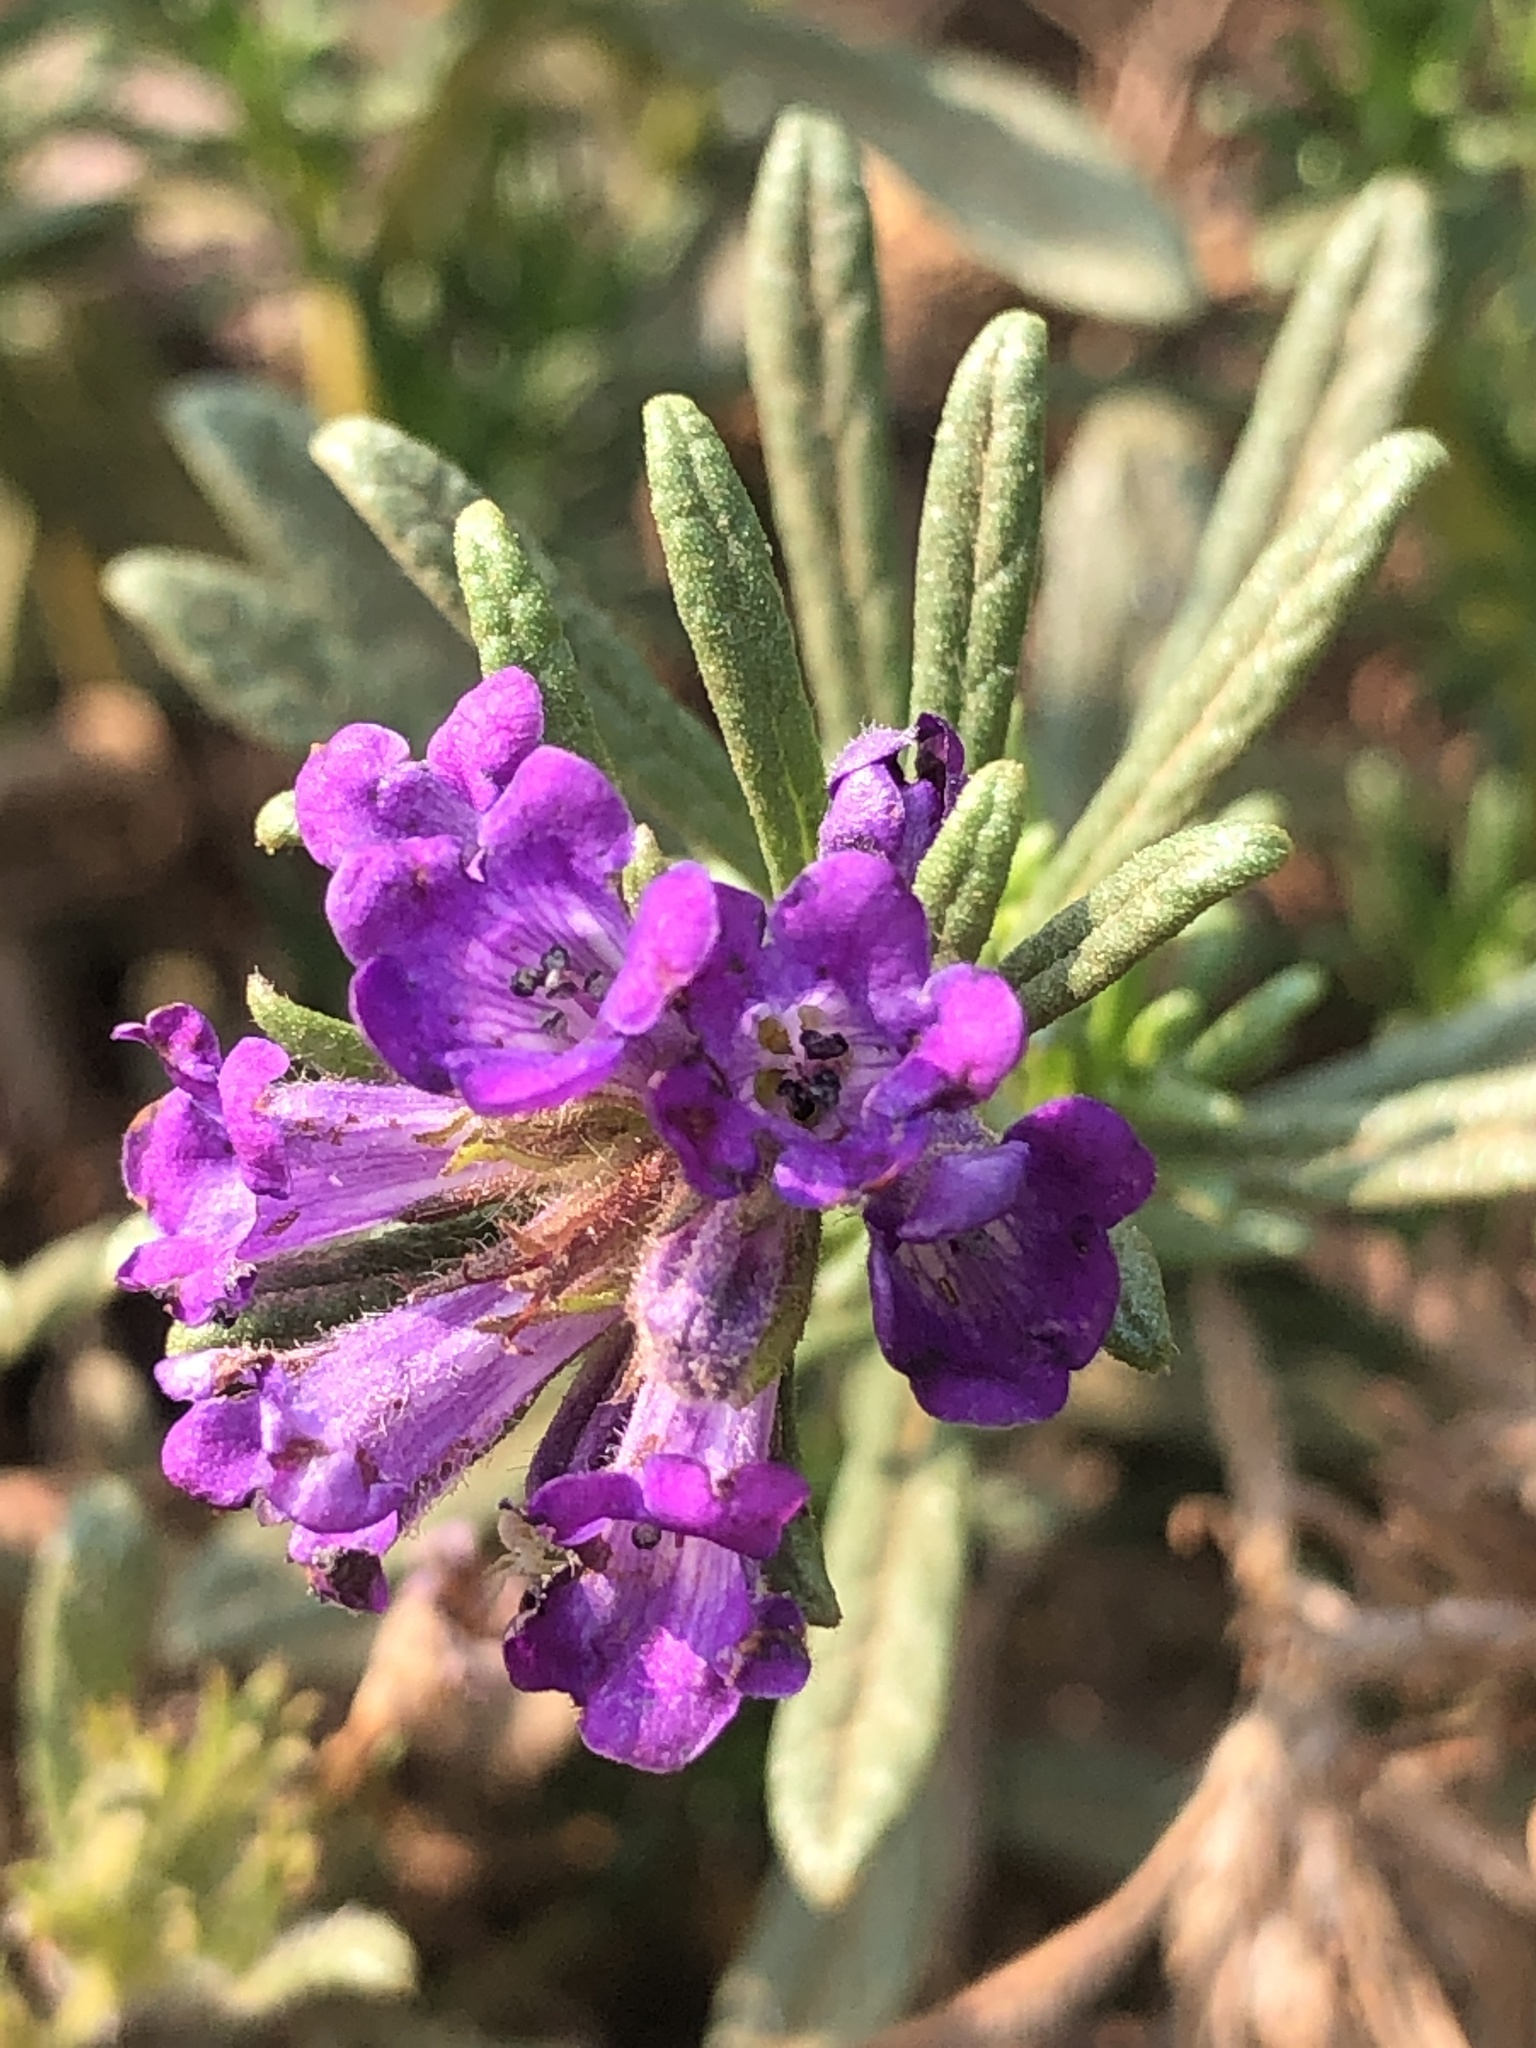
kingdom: Plantae
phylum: Tracheophyta
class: Magnoliopsida
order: Boraginales
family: Namaceae
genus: Nama
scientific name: Nama lobbii
